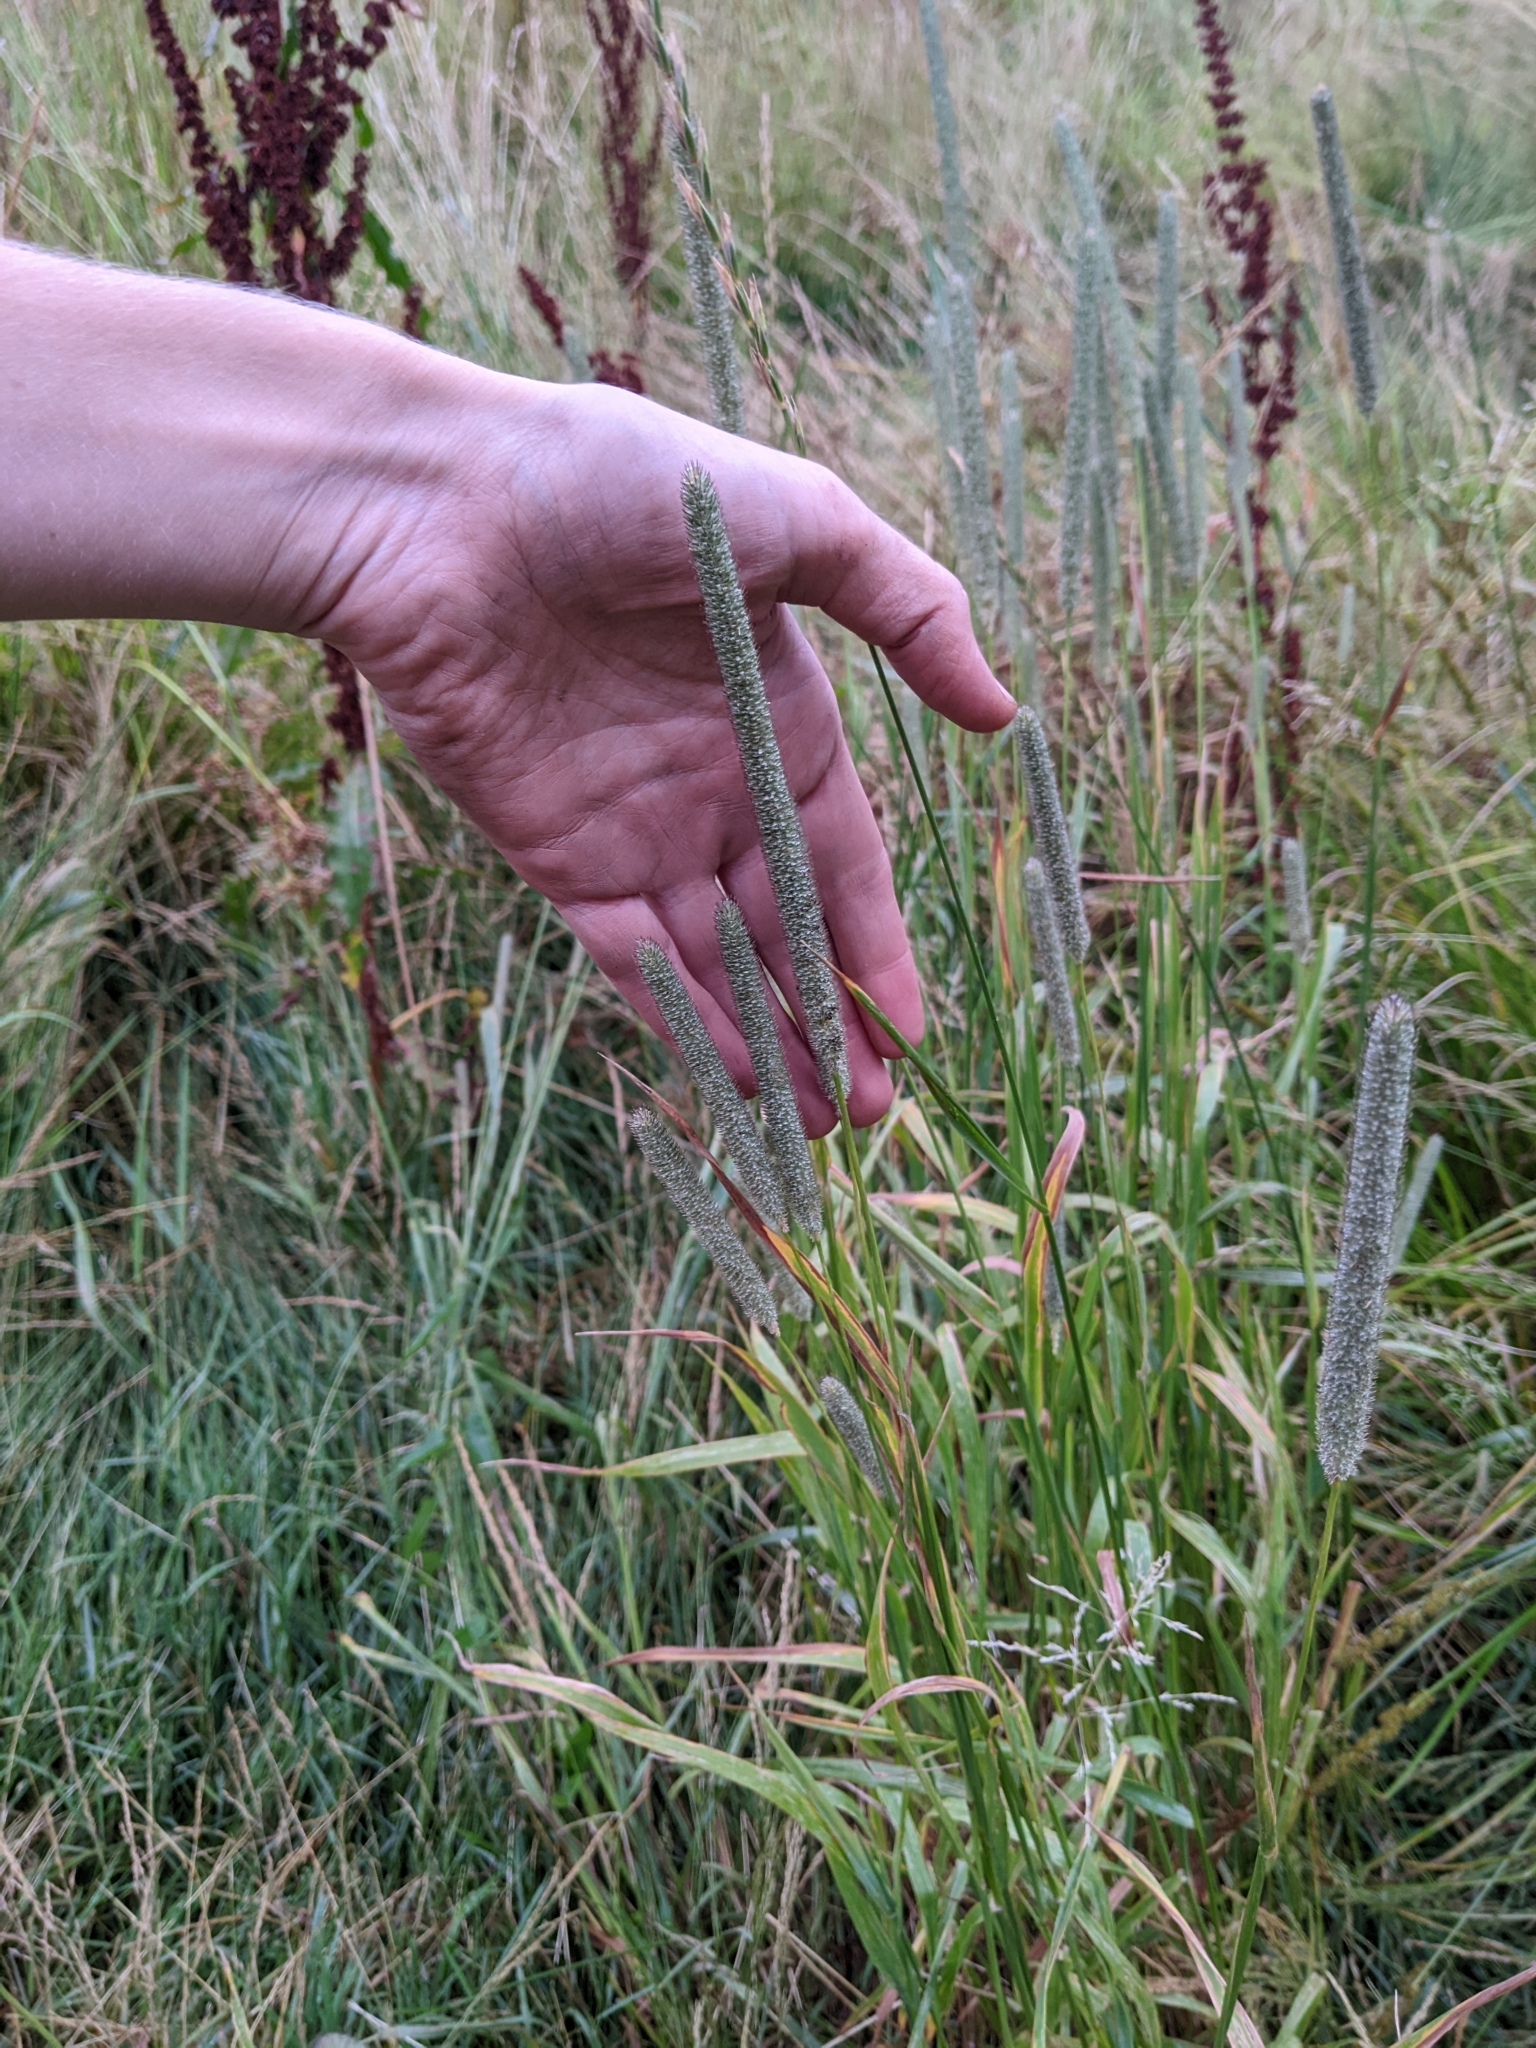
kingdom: Plantae
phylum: Tracheophyta
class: Liliopsida
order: Poales
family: Poaceae
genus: Phleum
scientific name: Phleum pratense
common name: Timothy grass
